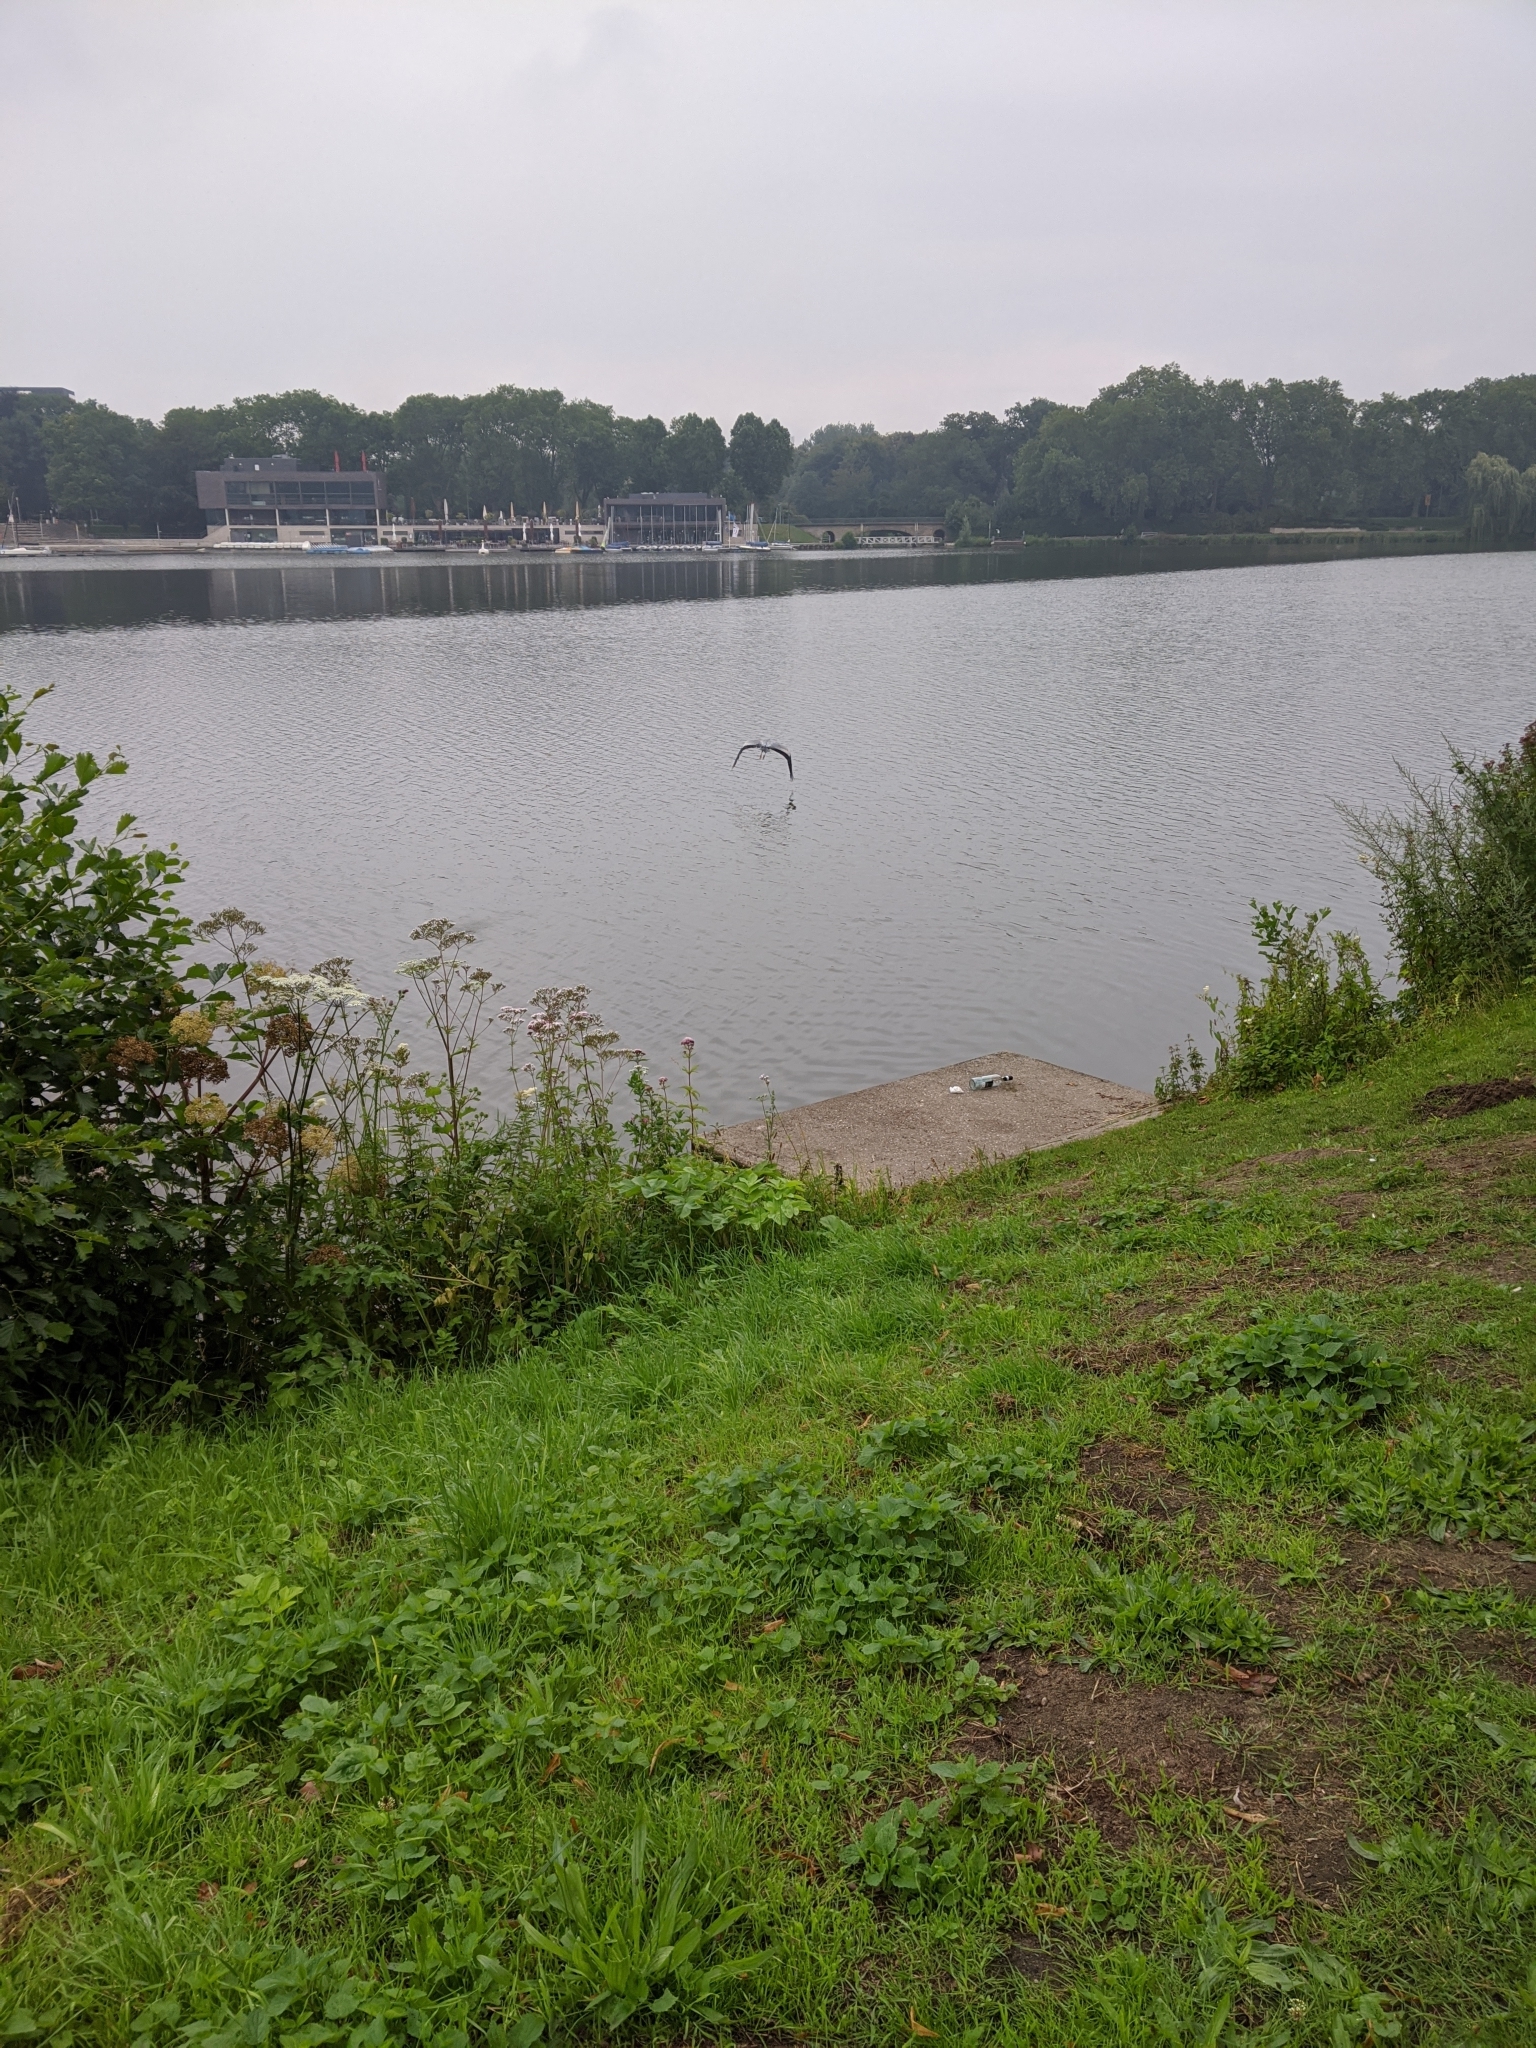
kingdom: Animalia
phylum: Chordata
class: Aves
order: Pelecaniformes
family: Ardeidae
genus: Ardea
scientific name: Ardea cinerea
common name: Grey heron
